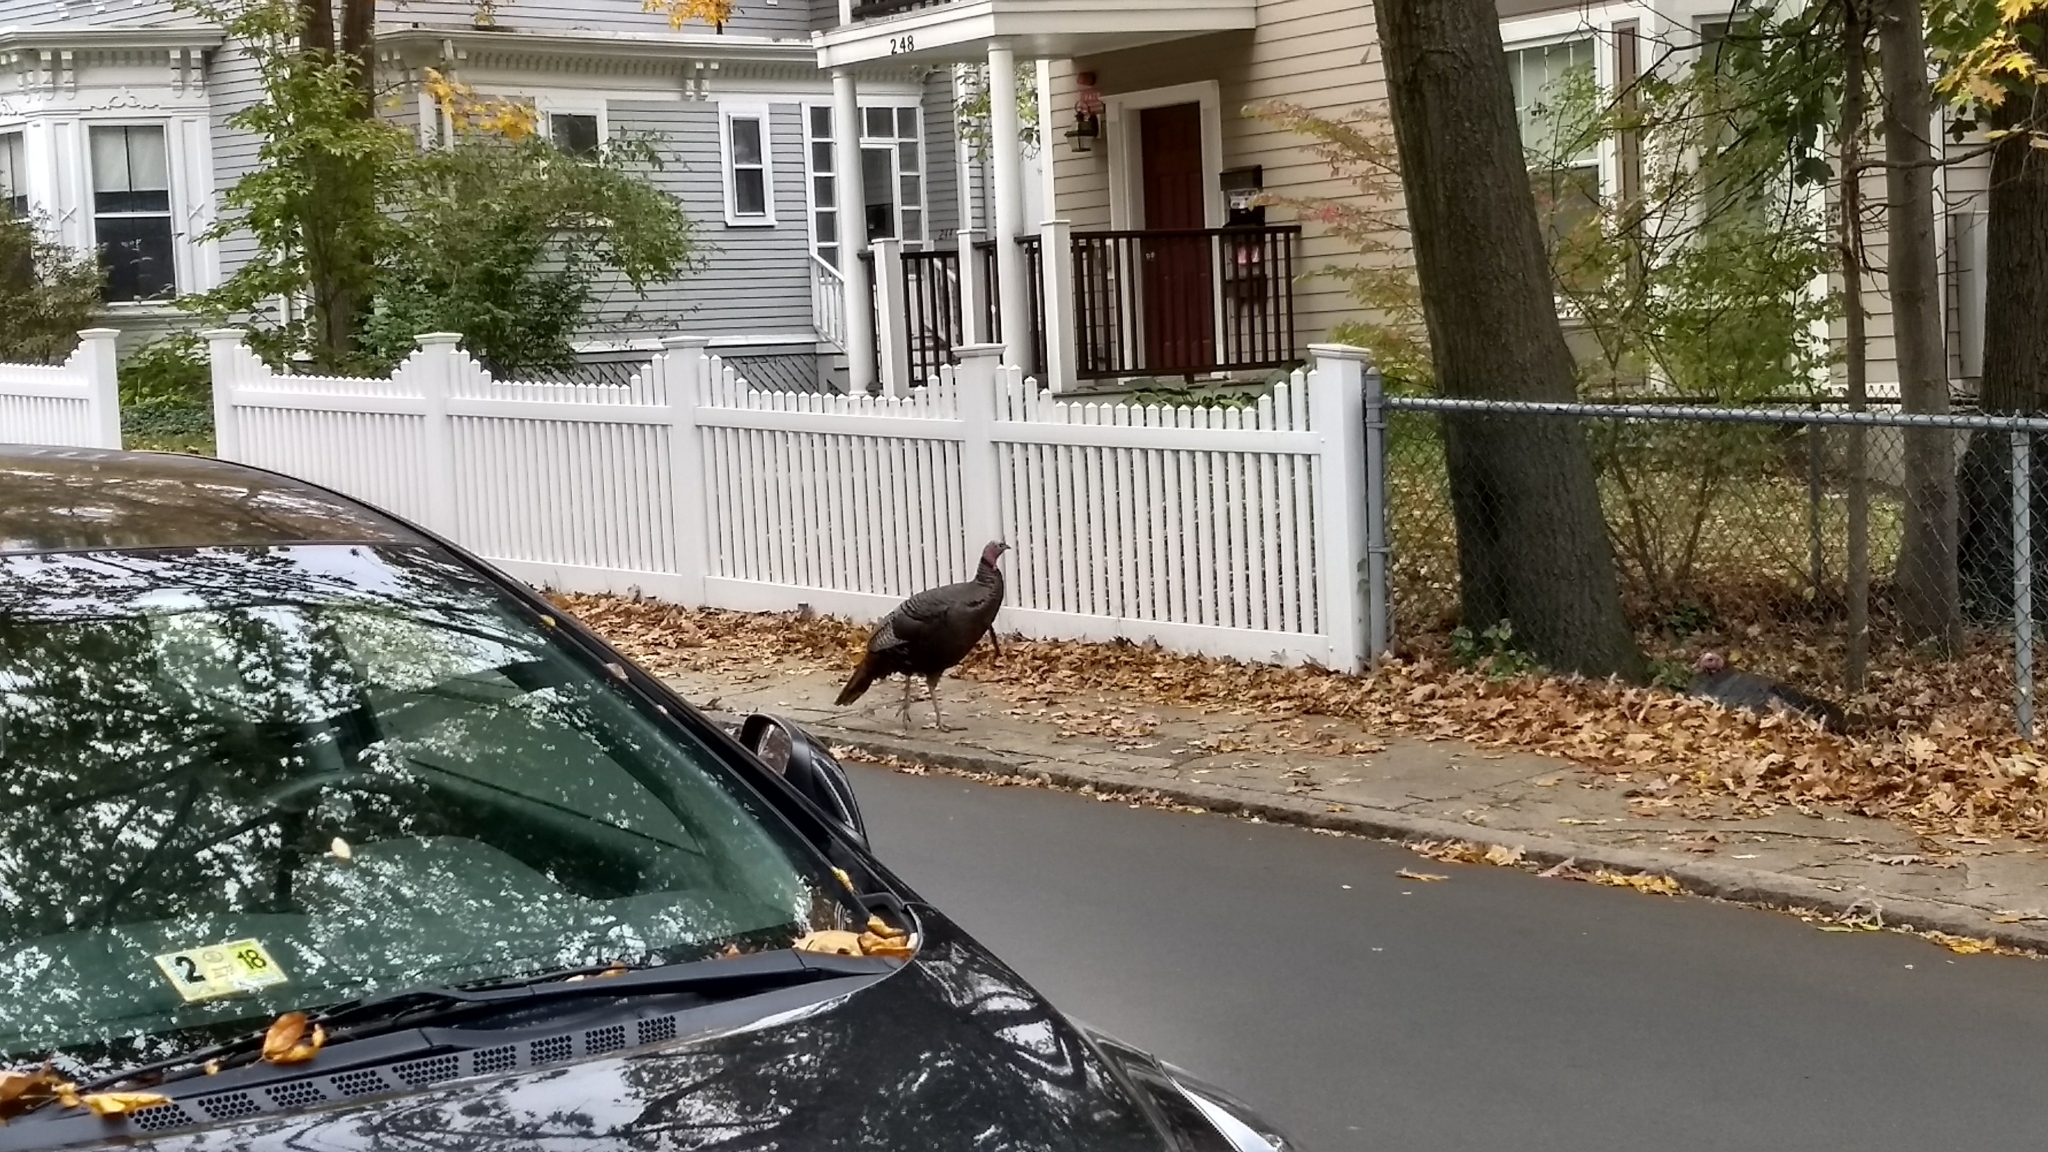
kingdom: Animalia
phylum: Chordata
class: Aves
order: Galliformes
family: Phasianidae
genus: Meleagris
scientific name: Meleagris gallopavo
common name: Wild turkey
